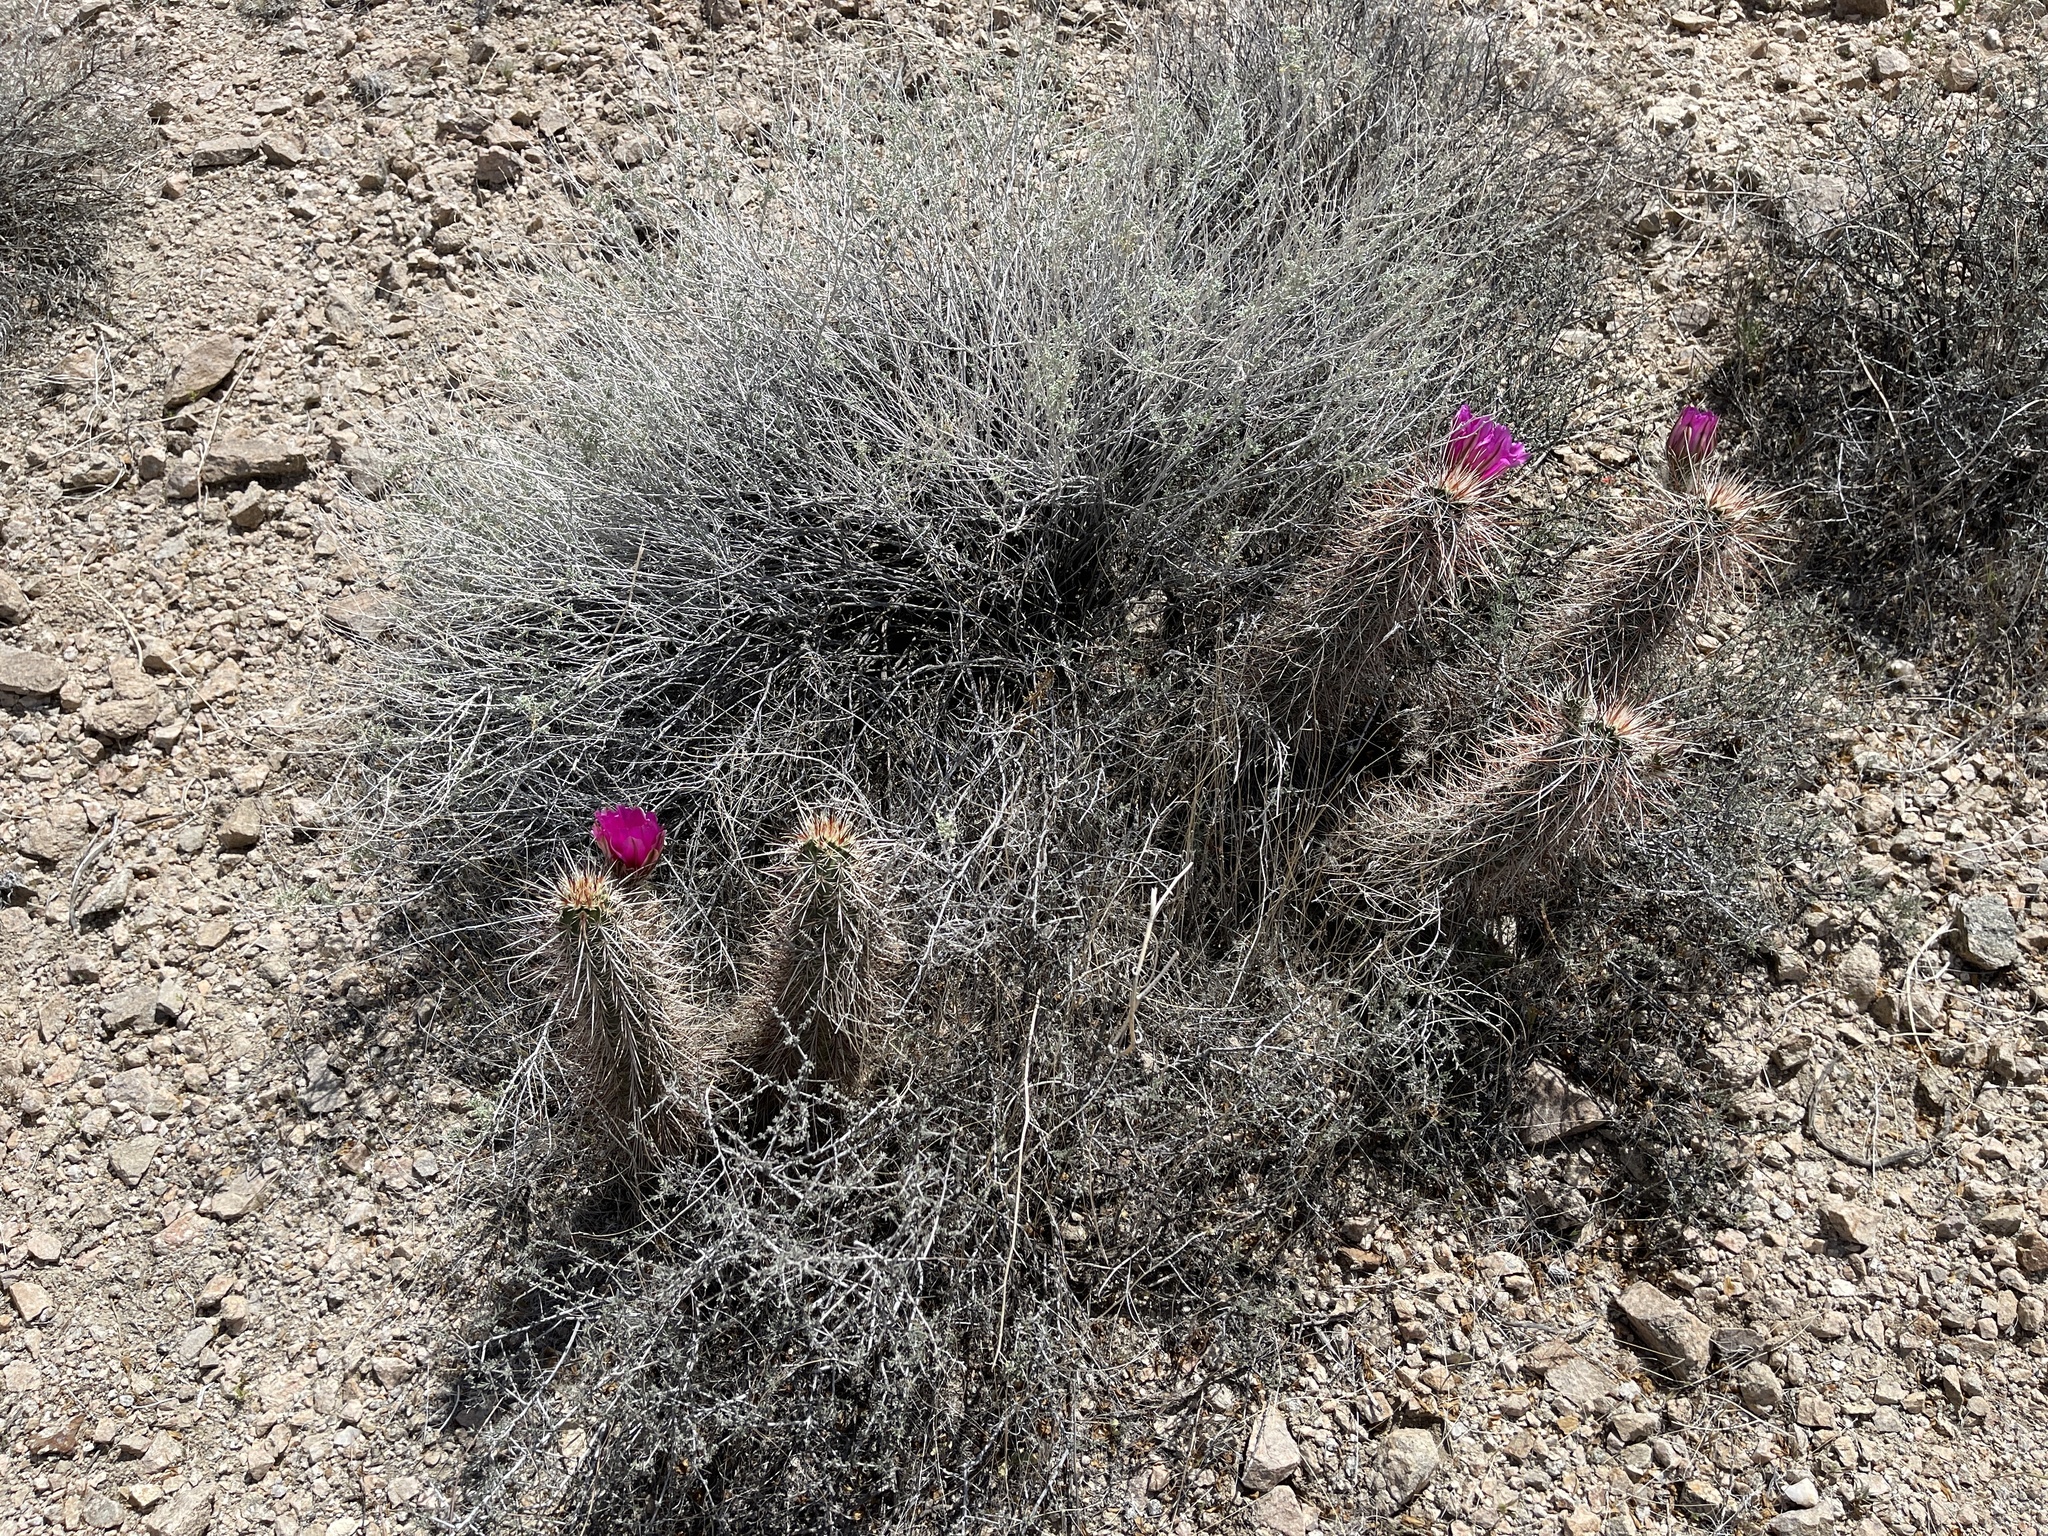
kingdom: Plantae
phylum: Tracheophyta
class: Magnoliopsida
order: Caryophyllales
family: Cactaceae
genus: Echinocereus
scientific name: Echinocereus engelmannii
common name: Engelmann's hedgehog cactus
